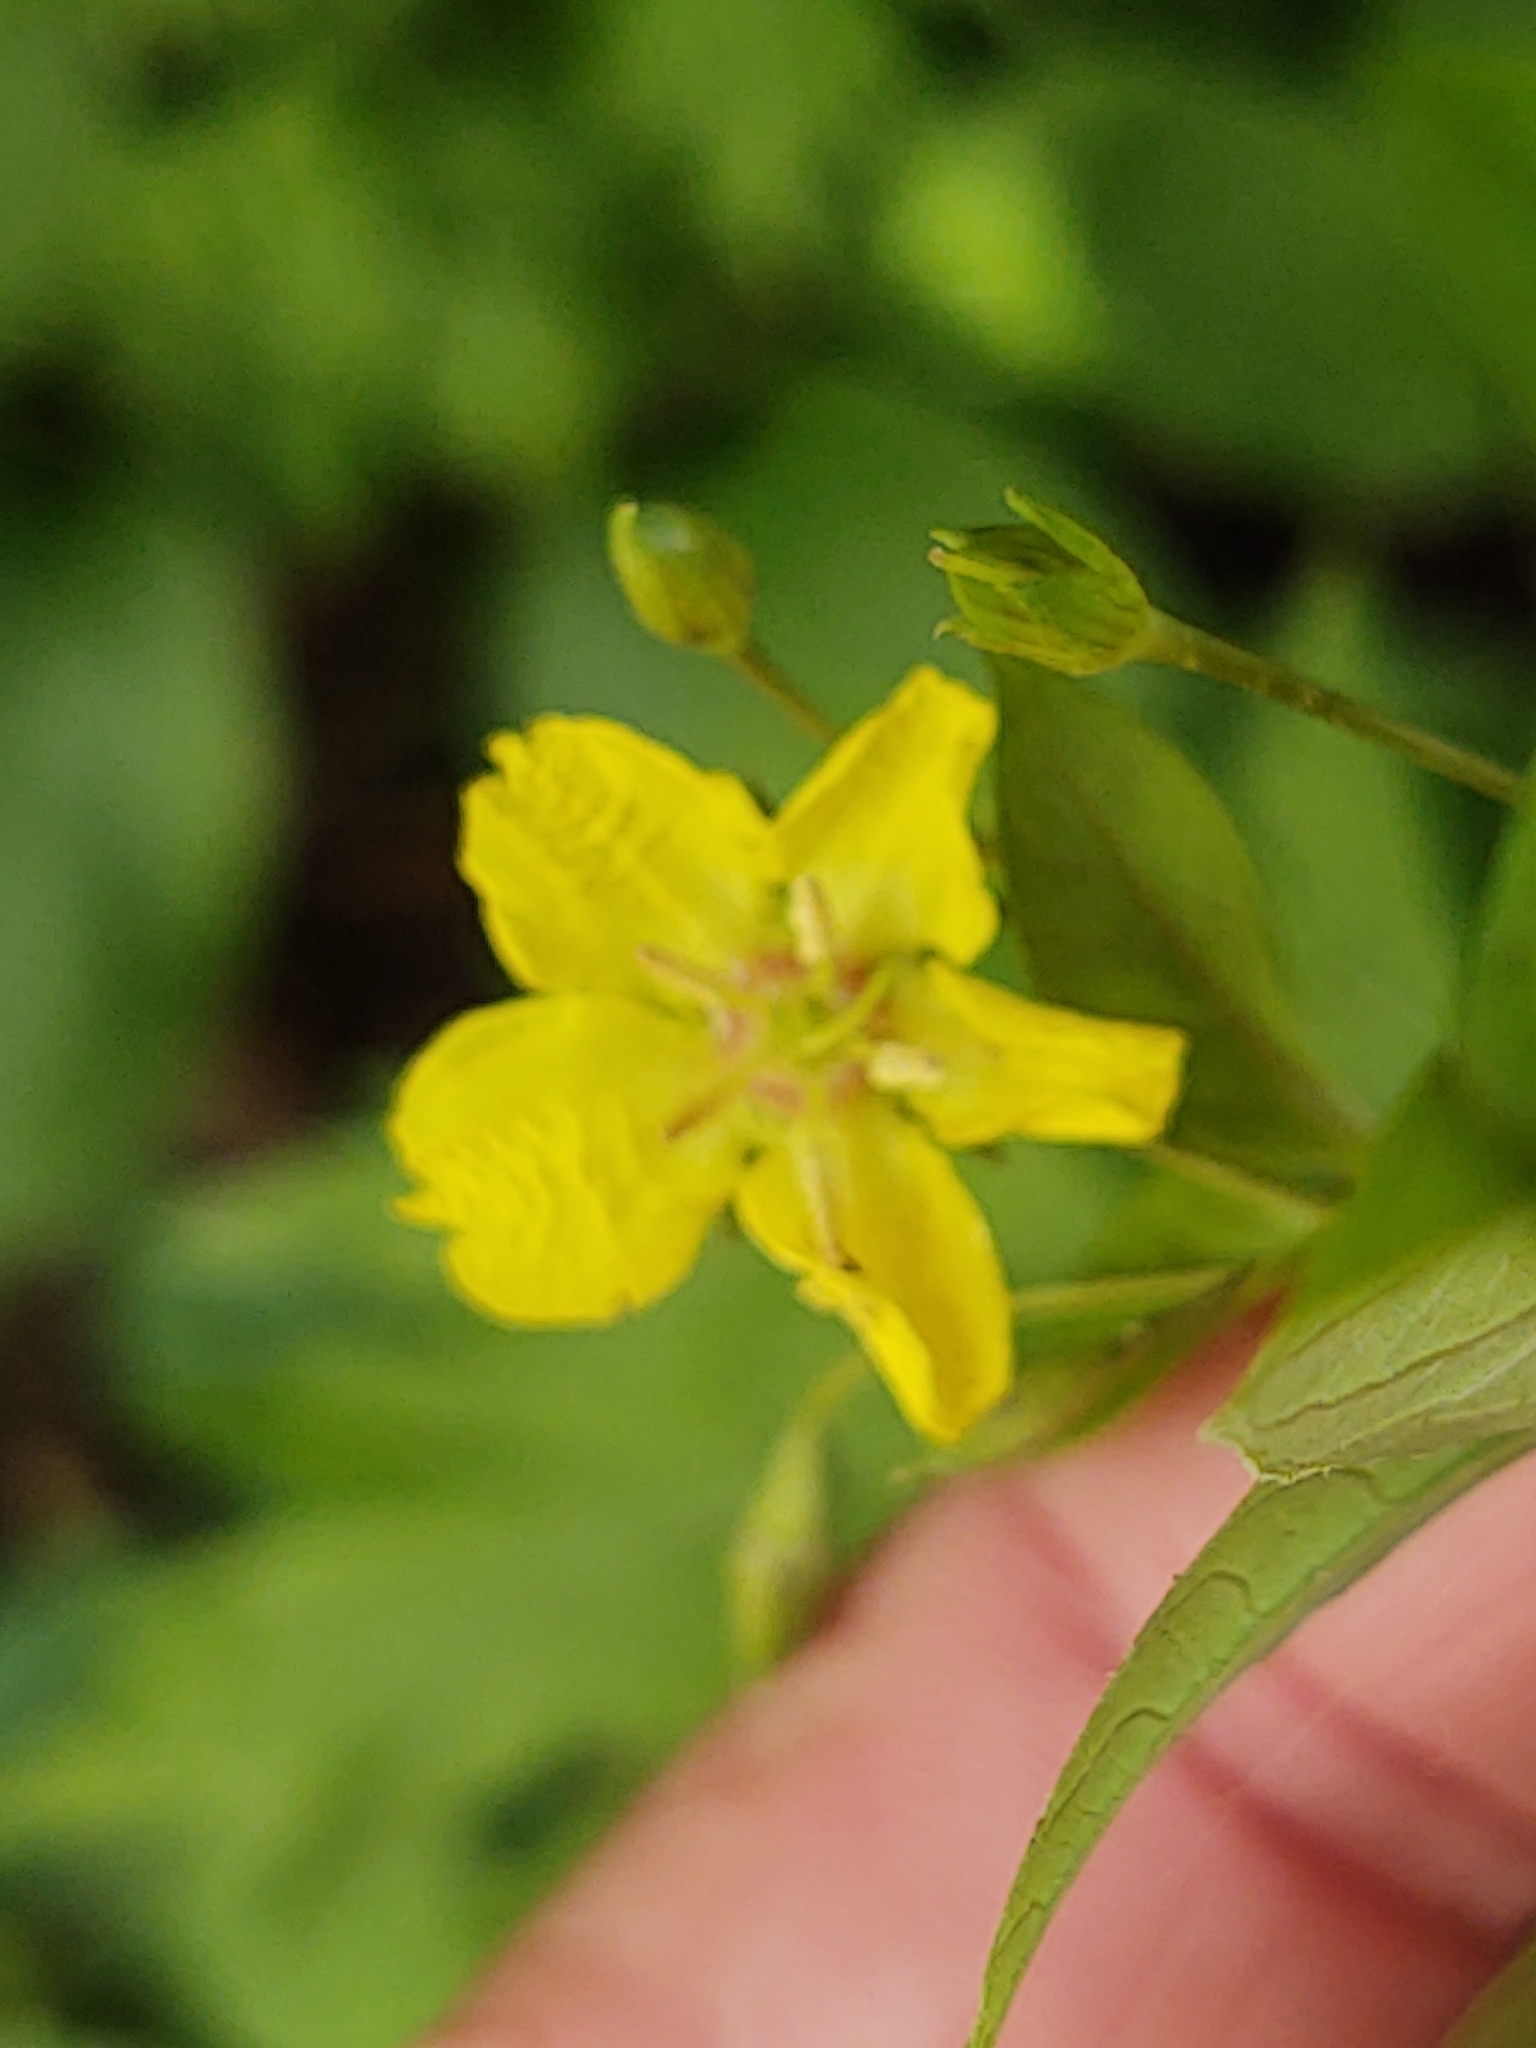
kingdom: Plantae
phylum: Tracheophyta
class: Magnoliopsida
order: Ericales
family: Primulaceae
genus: Lysimachia
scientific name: Lysimachia ciliata
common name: Fringed loosestrife
